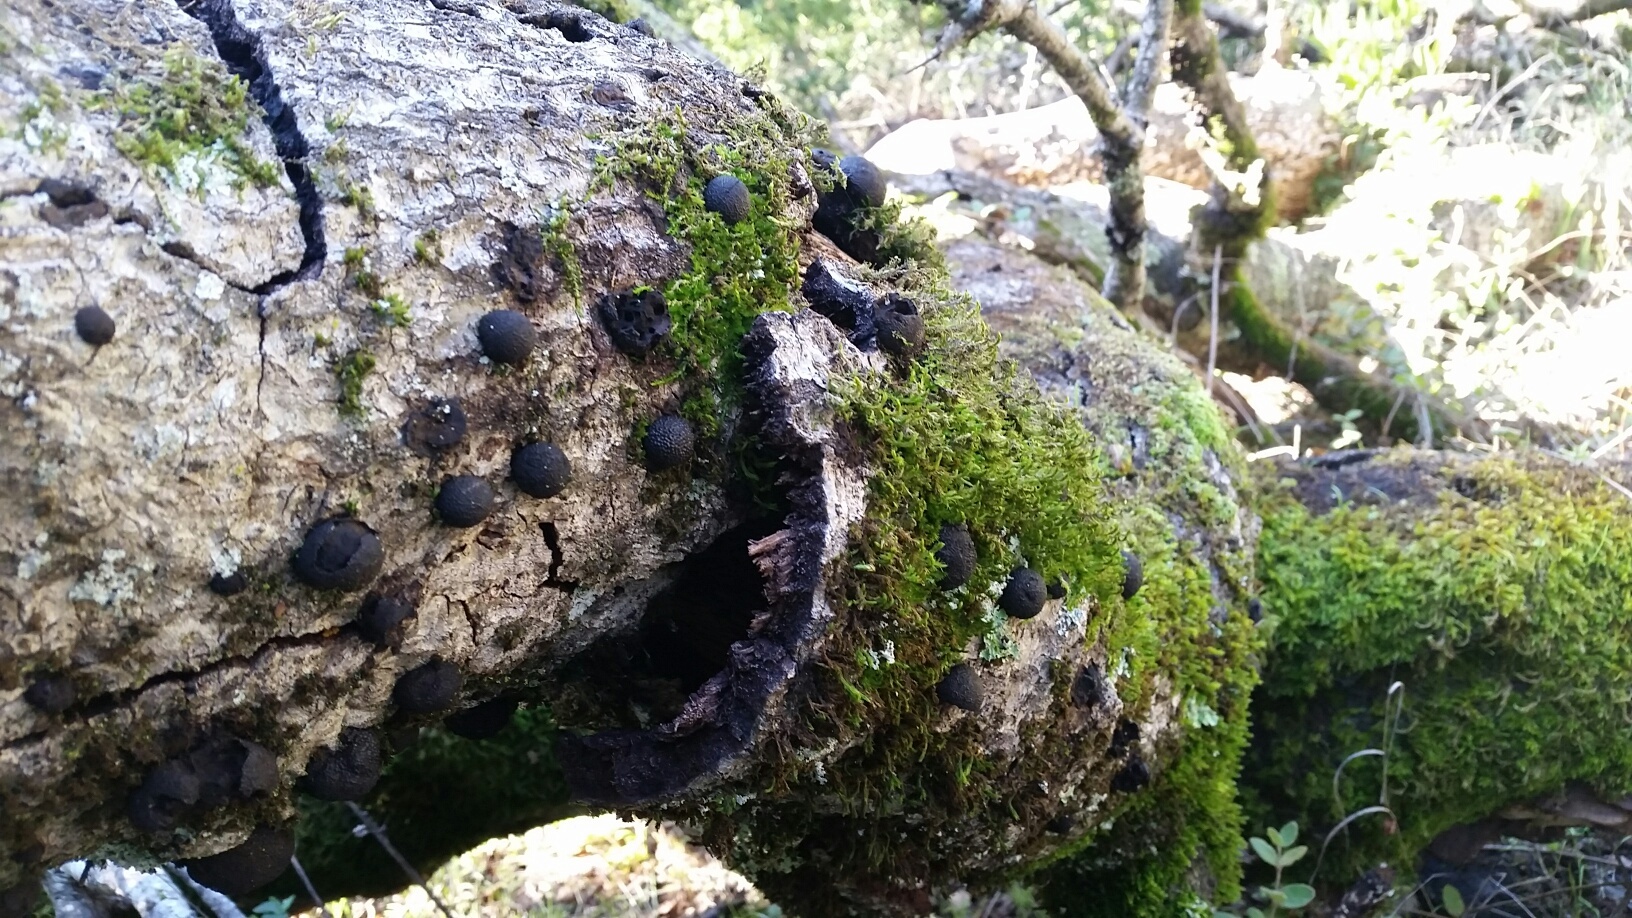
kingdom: Fungi
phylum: Ascomycota
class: Sordariomycetes
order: Xylariales
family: Hypoxylaceae
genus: Annulohypoxylon
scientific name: Annulohypoxylon thouarsianum
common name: Cramp balls
